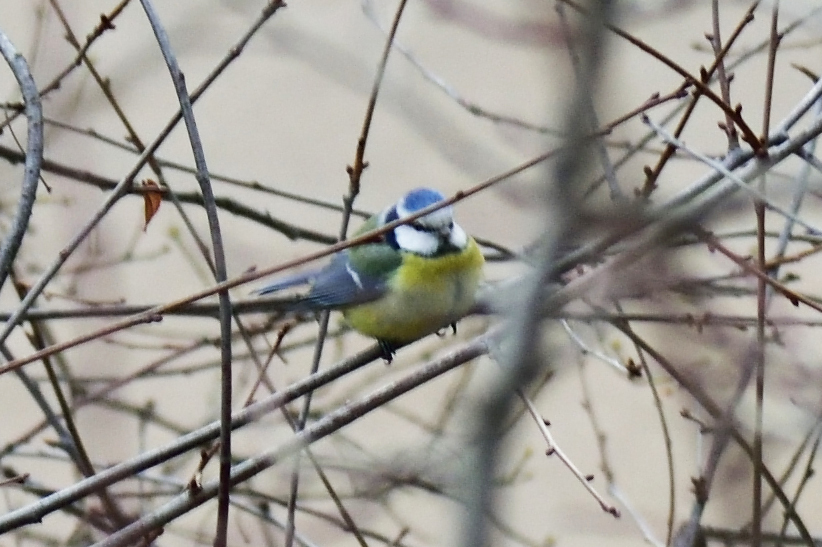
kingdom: Animalia
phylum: Chordata
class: Aves
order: Passeriformes
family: Paridae
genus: Cyanistes
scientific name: Cyanistes caeruleus
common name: Eurasian blue tit
